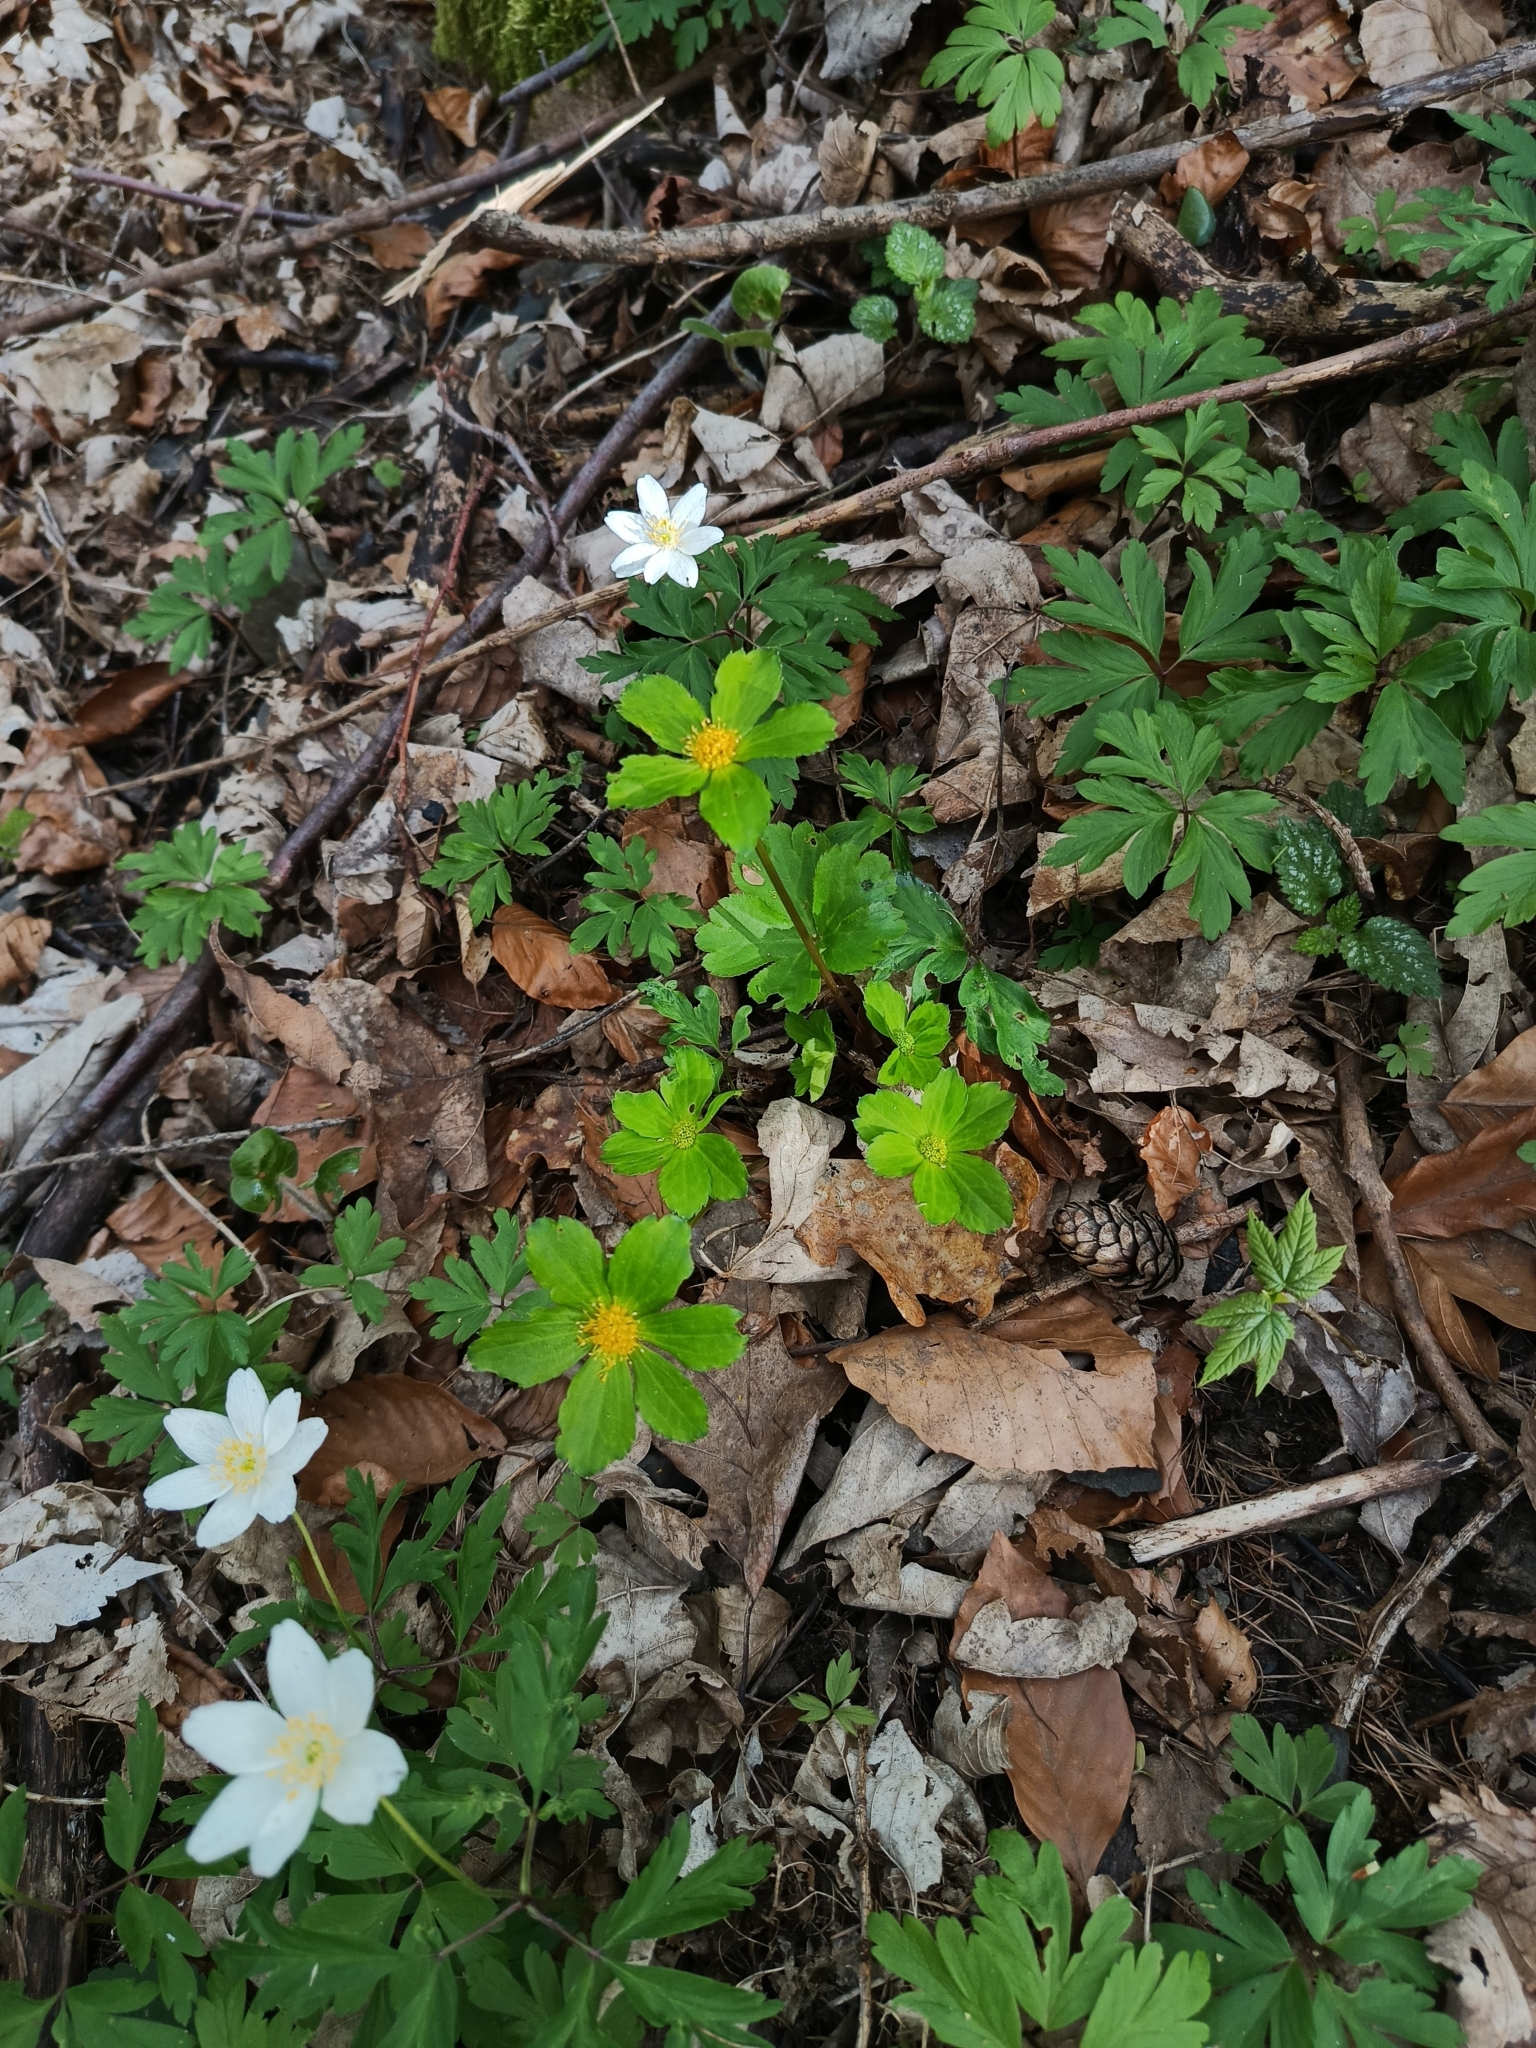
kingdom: Plantae
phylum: Tracheophyta
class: Magnoliopsida
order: Apiales
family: Apiaceae
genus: Sanicula
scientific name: Sanicula epipactis
